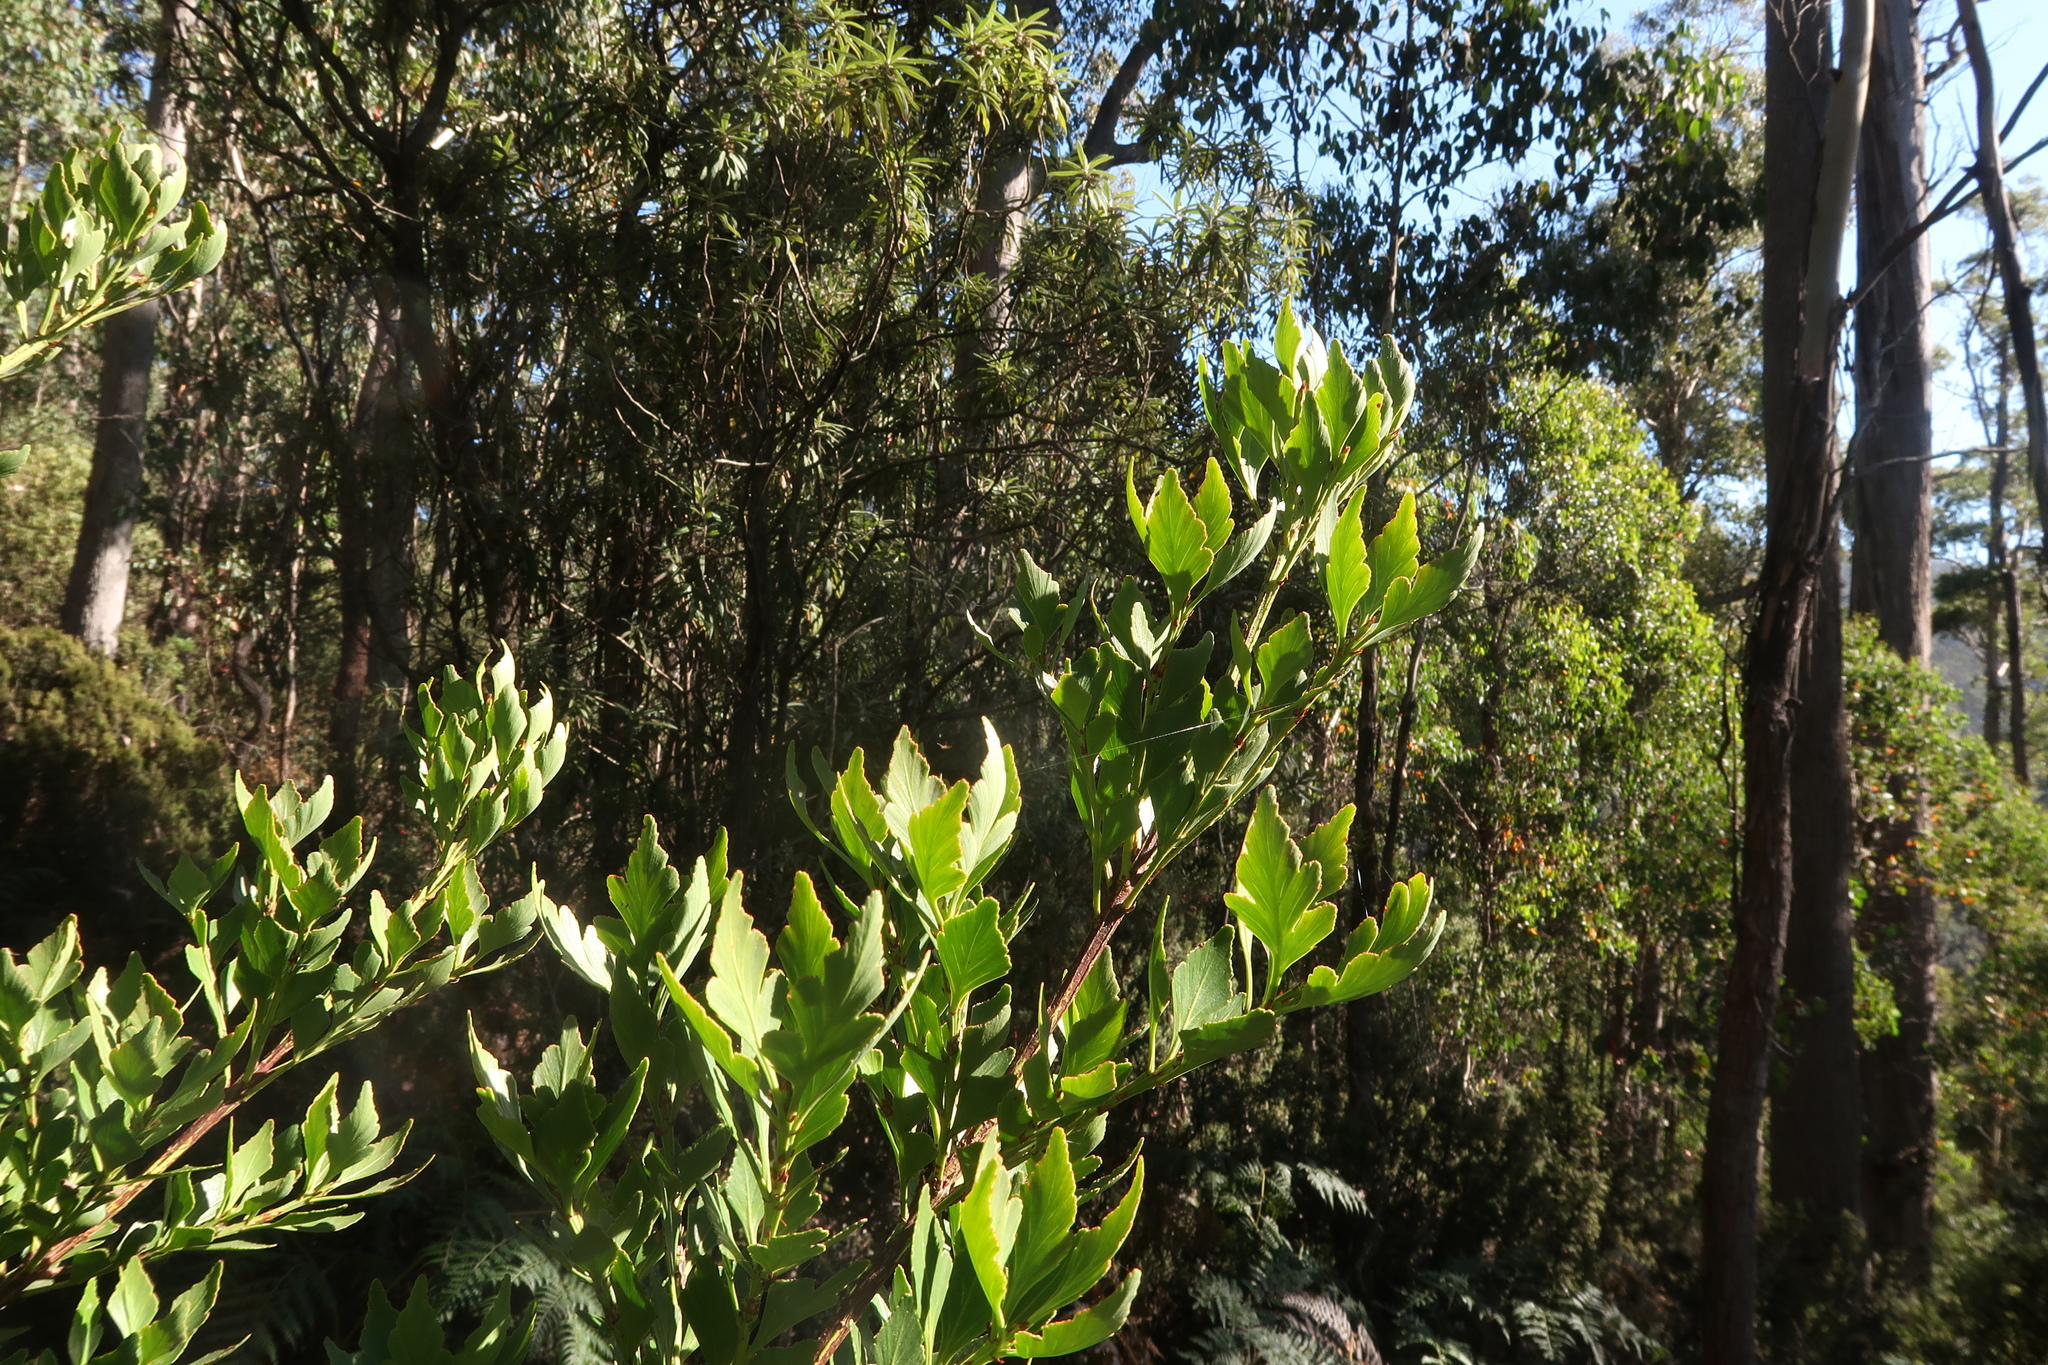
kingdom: Plantae
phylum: Tracheophyta
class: Pinopsida
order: Pinales
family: Phyllocladaceae
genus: Phyllocladus
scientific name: Phyllocladus aspleniifolius
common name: Celery-top pine
